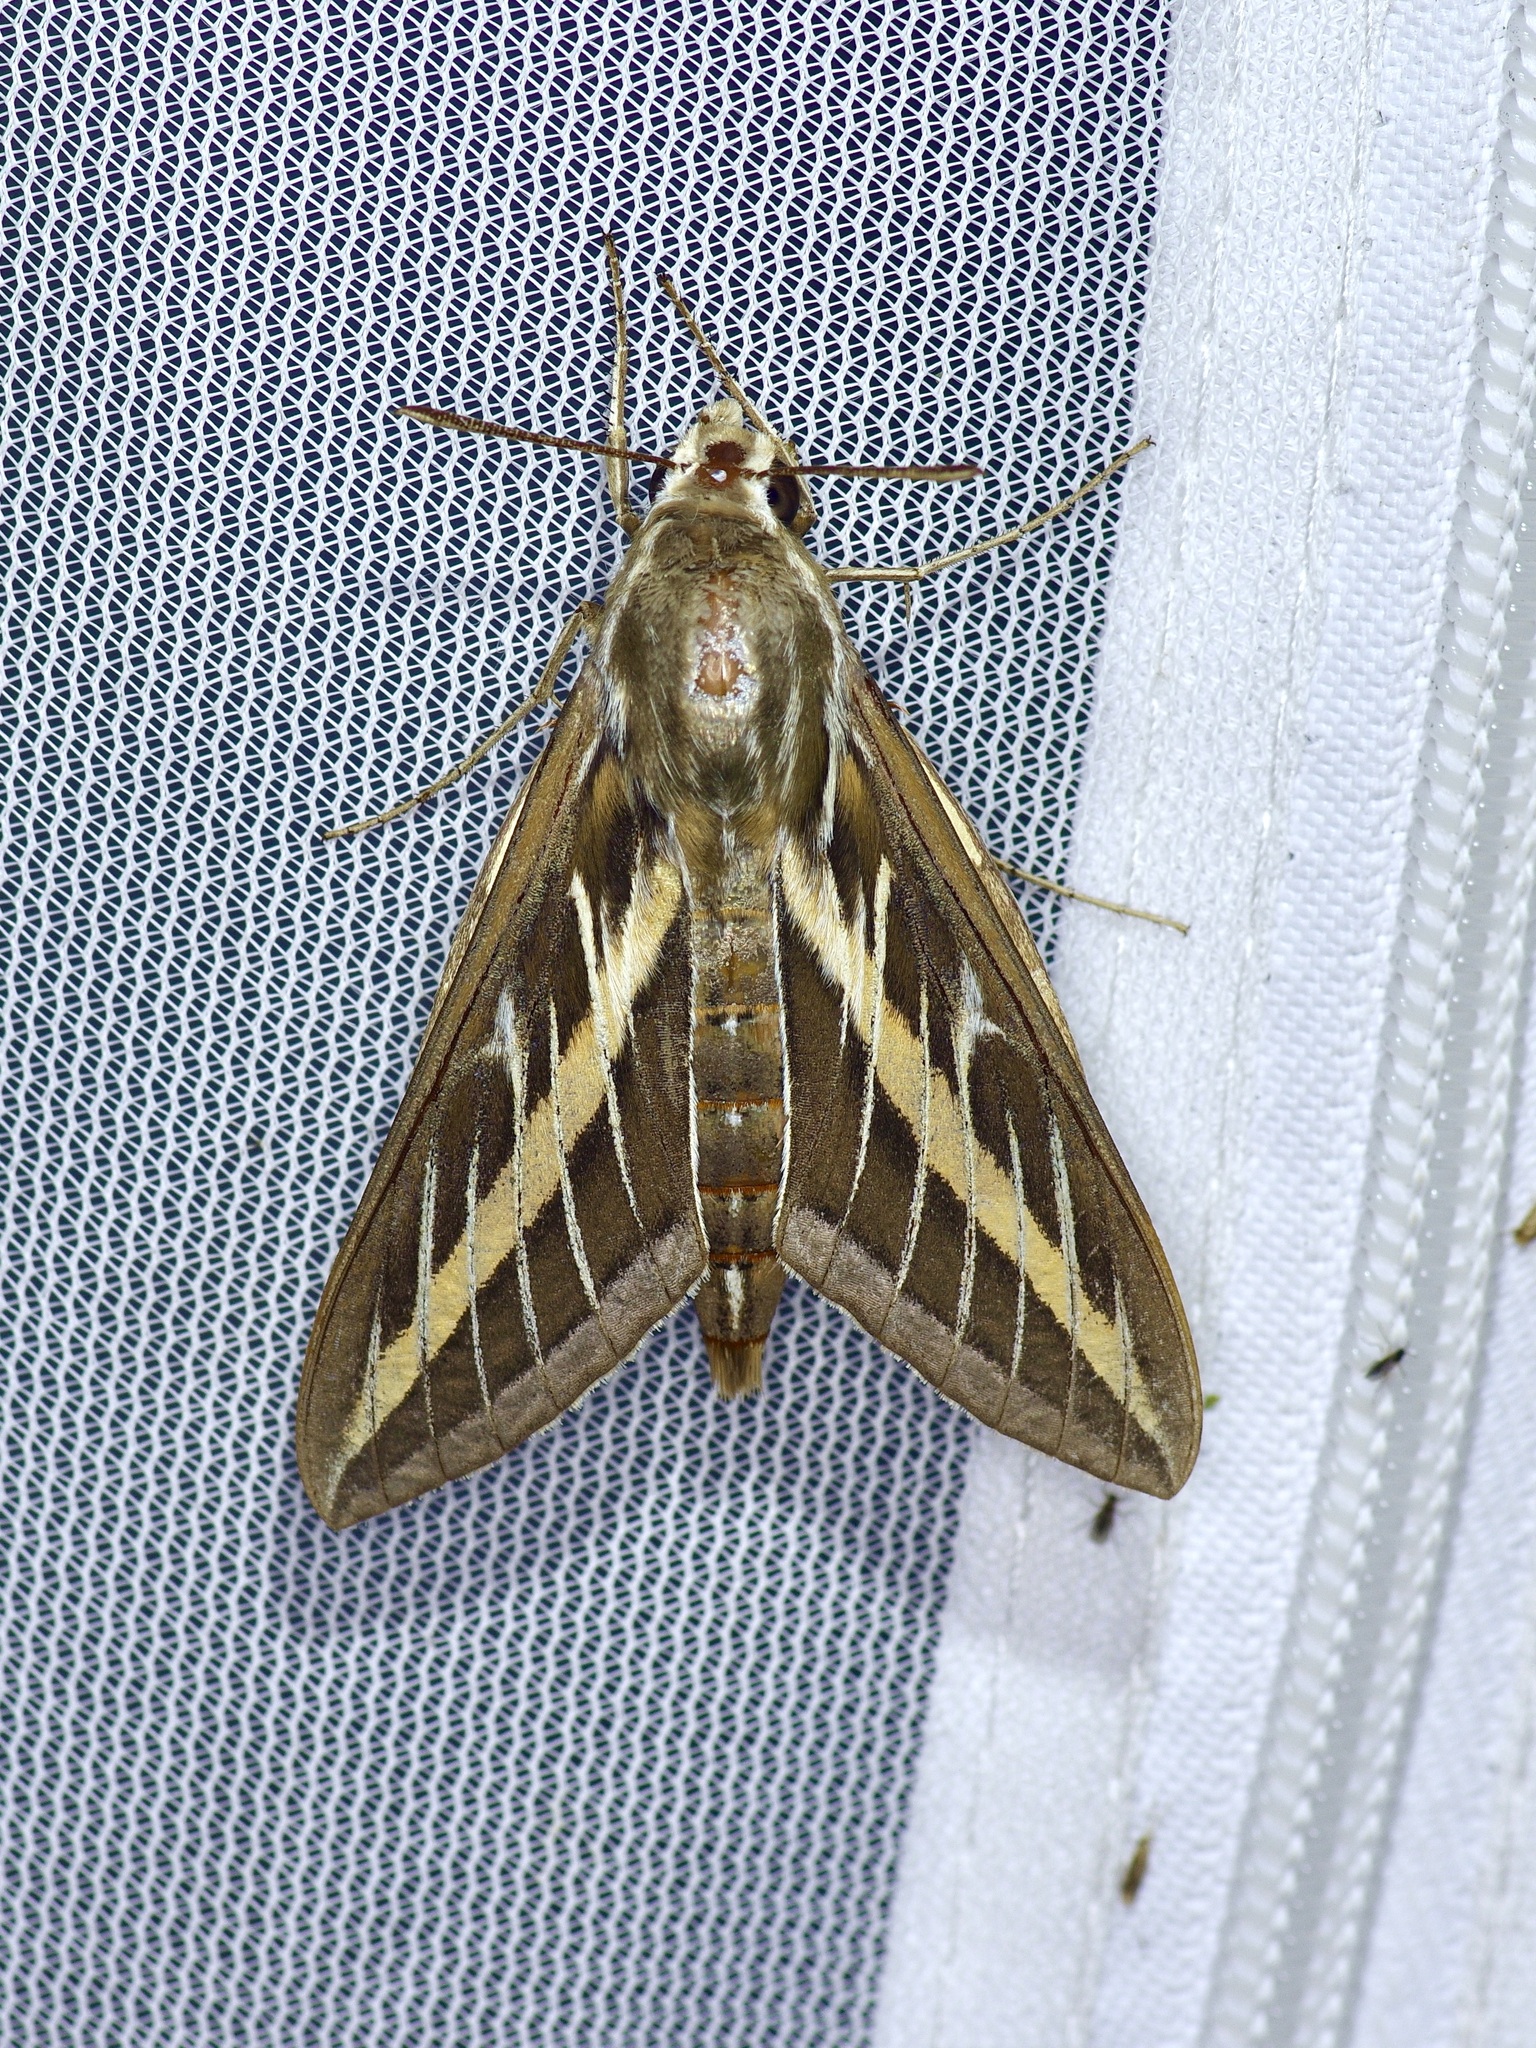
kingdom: Animalia
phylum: Arthropoda
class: Insecta
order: Lepidoptera
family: Sphingidae
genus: Hyles
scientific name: Hyles lineata
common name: White-lined sphinx
